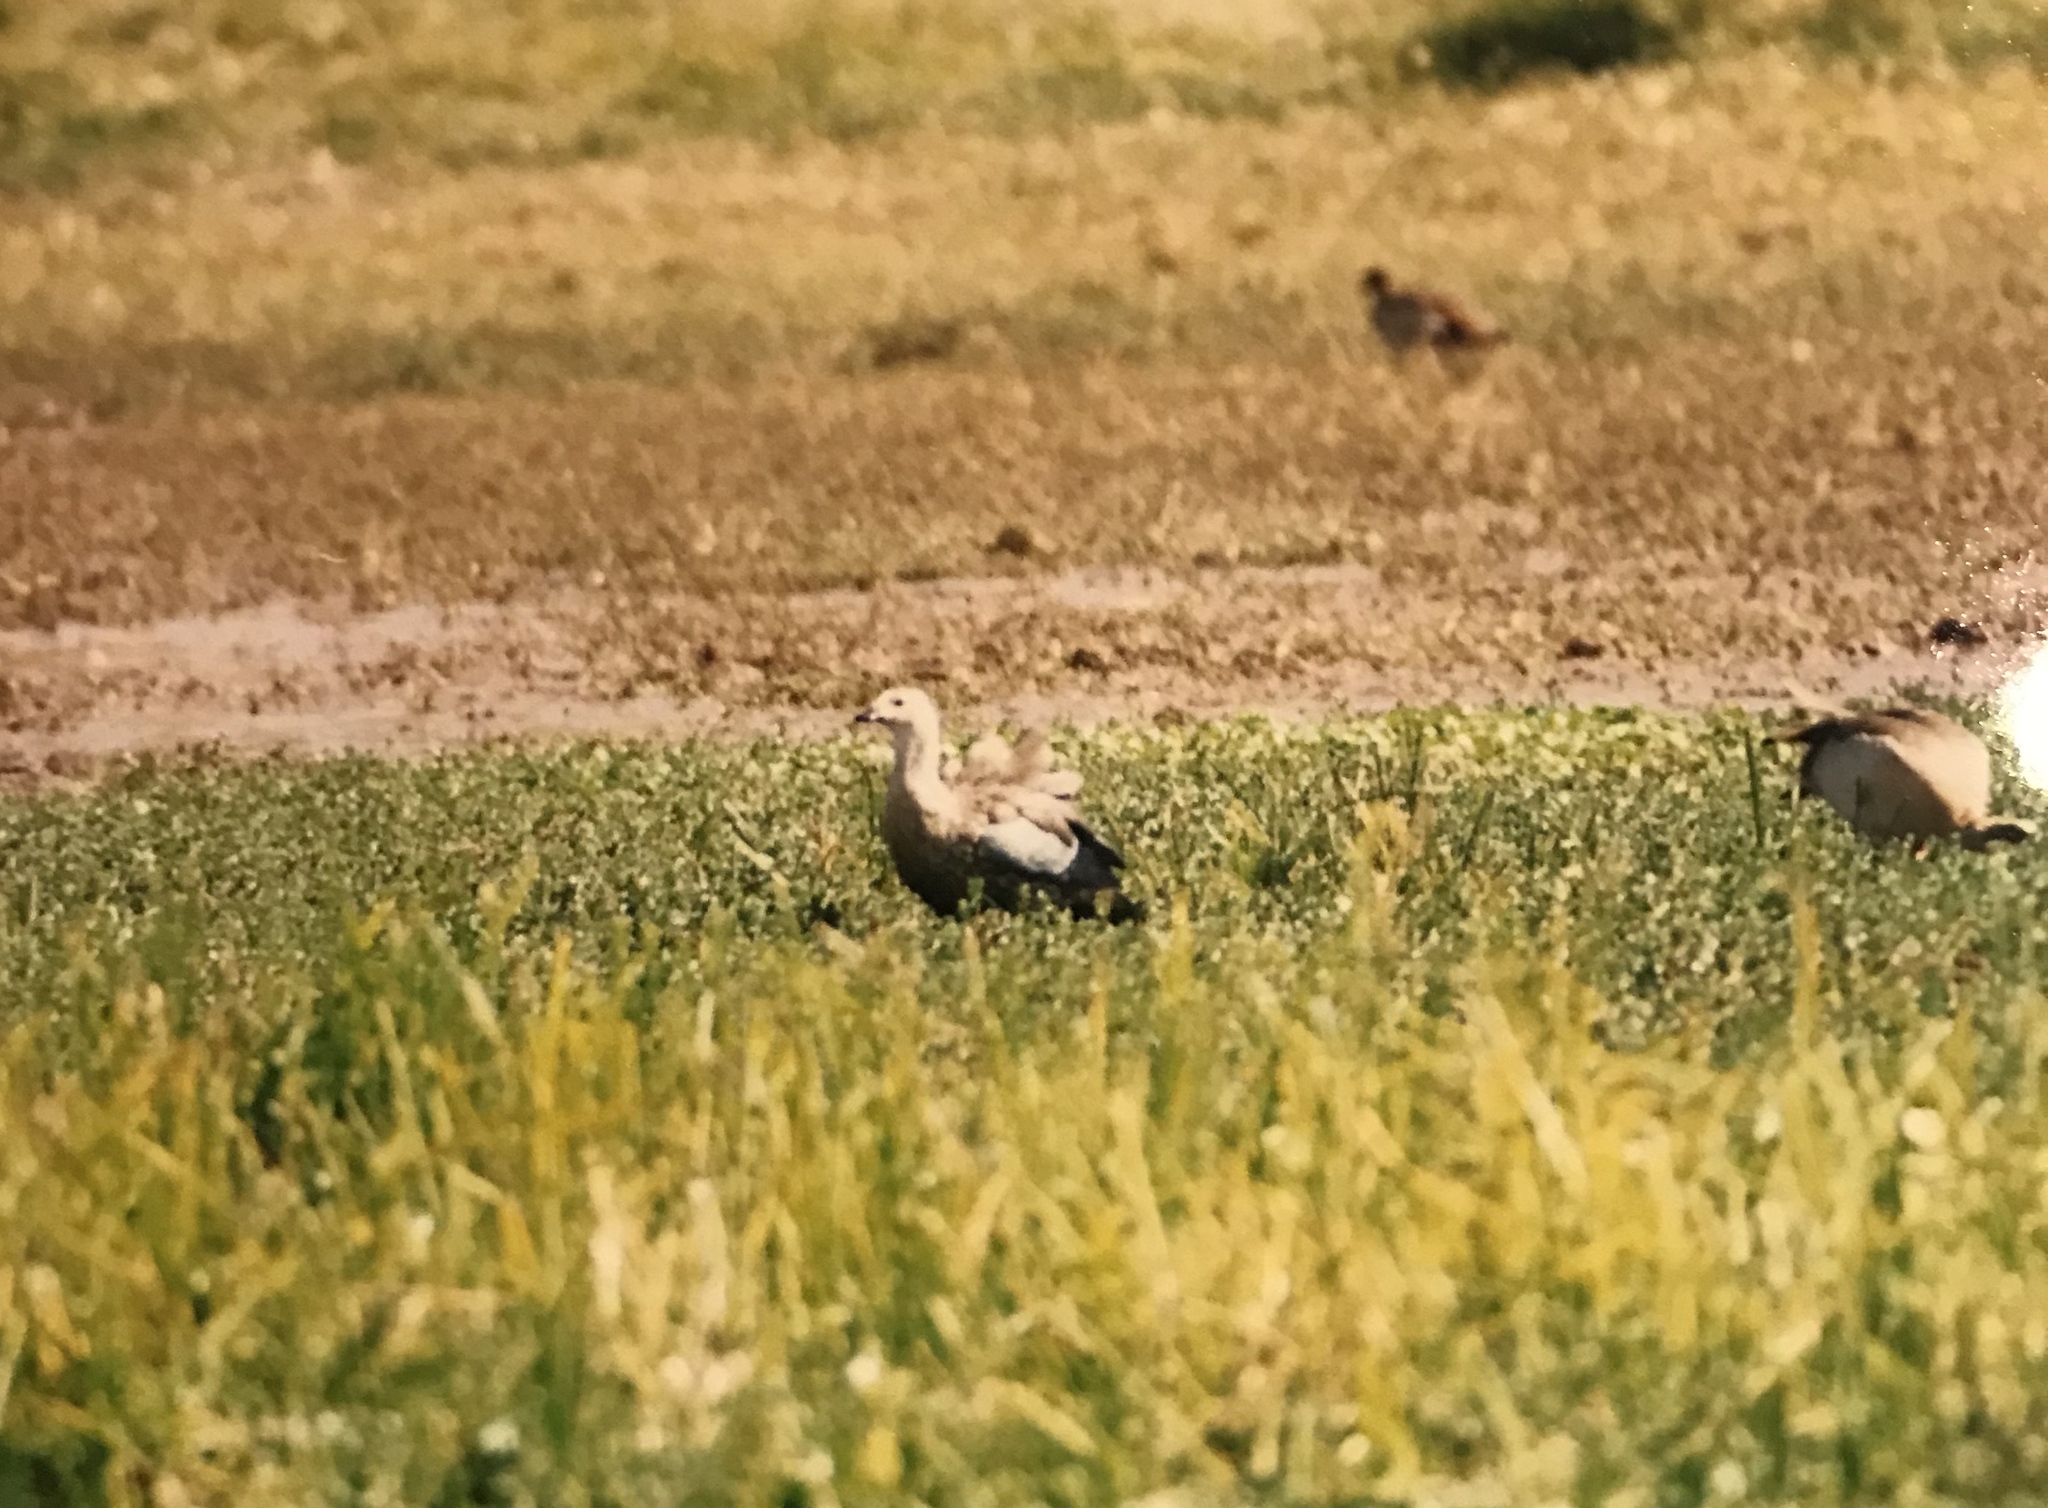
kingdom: Animalia
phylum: Chordata
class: Aves
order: Anseriformes
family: Anatidae
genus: Cyanochen
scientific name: Cyanochen cyanoptera
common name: Blue-winged goose
